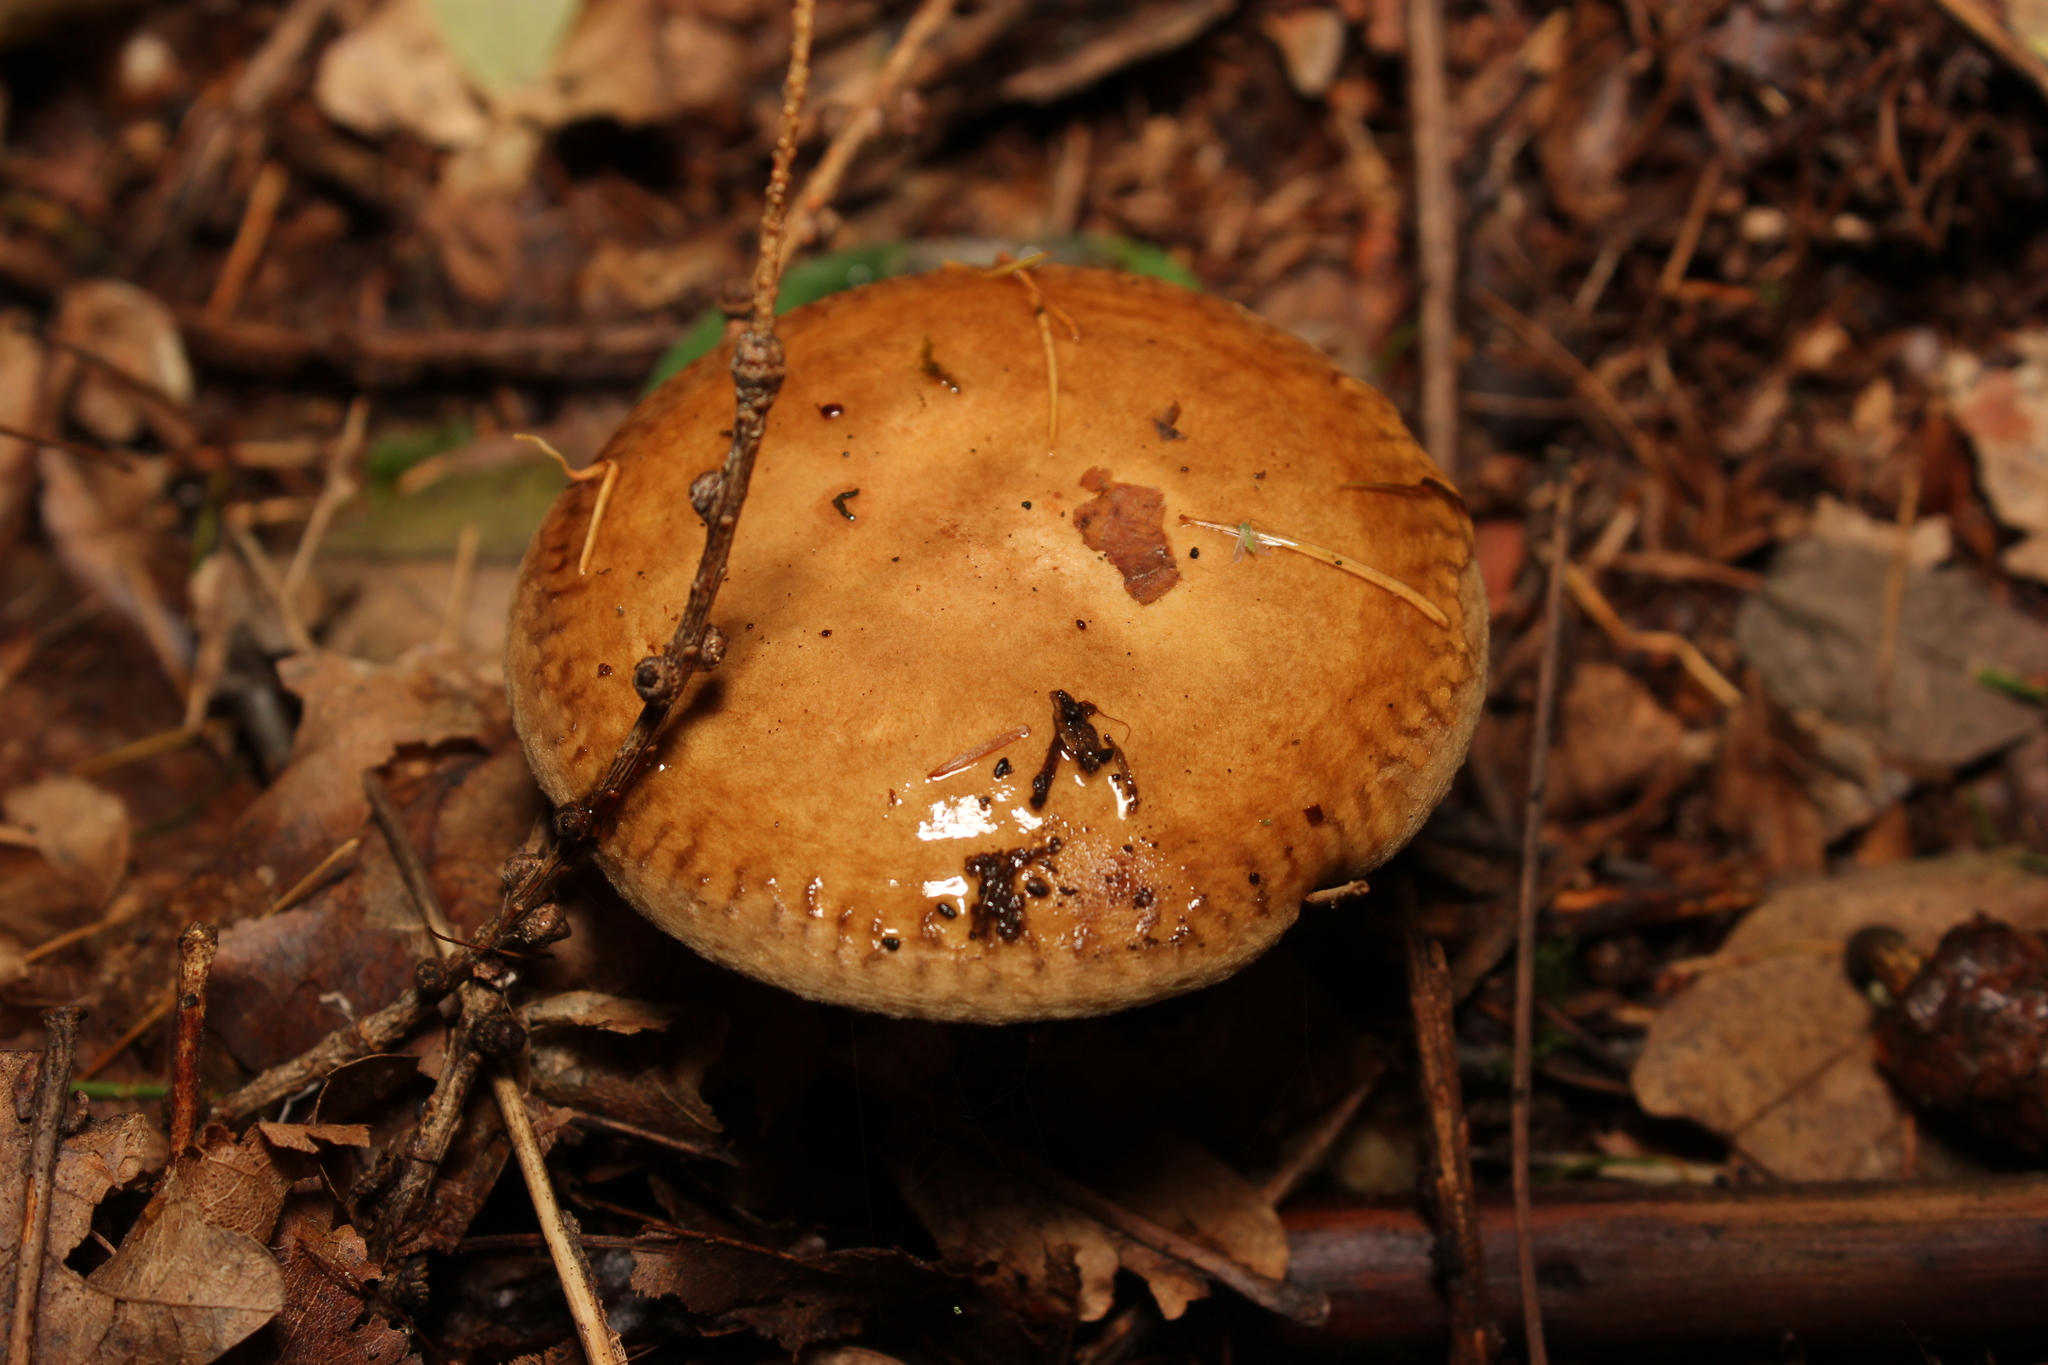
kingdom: Fungi
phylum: Basidiomycota
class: Agaricomycetes
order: Boletales
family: Paxillaceae
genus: Paxillus
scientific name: Paxillus involutus
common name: Brown roll rim
